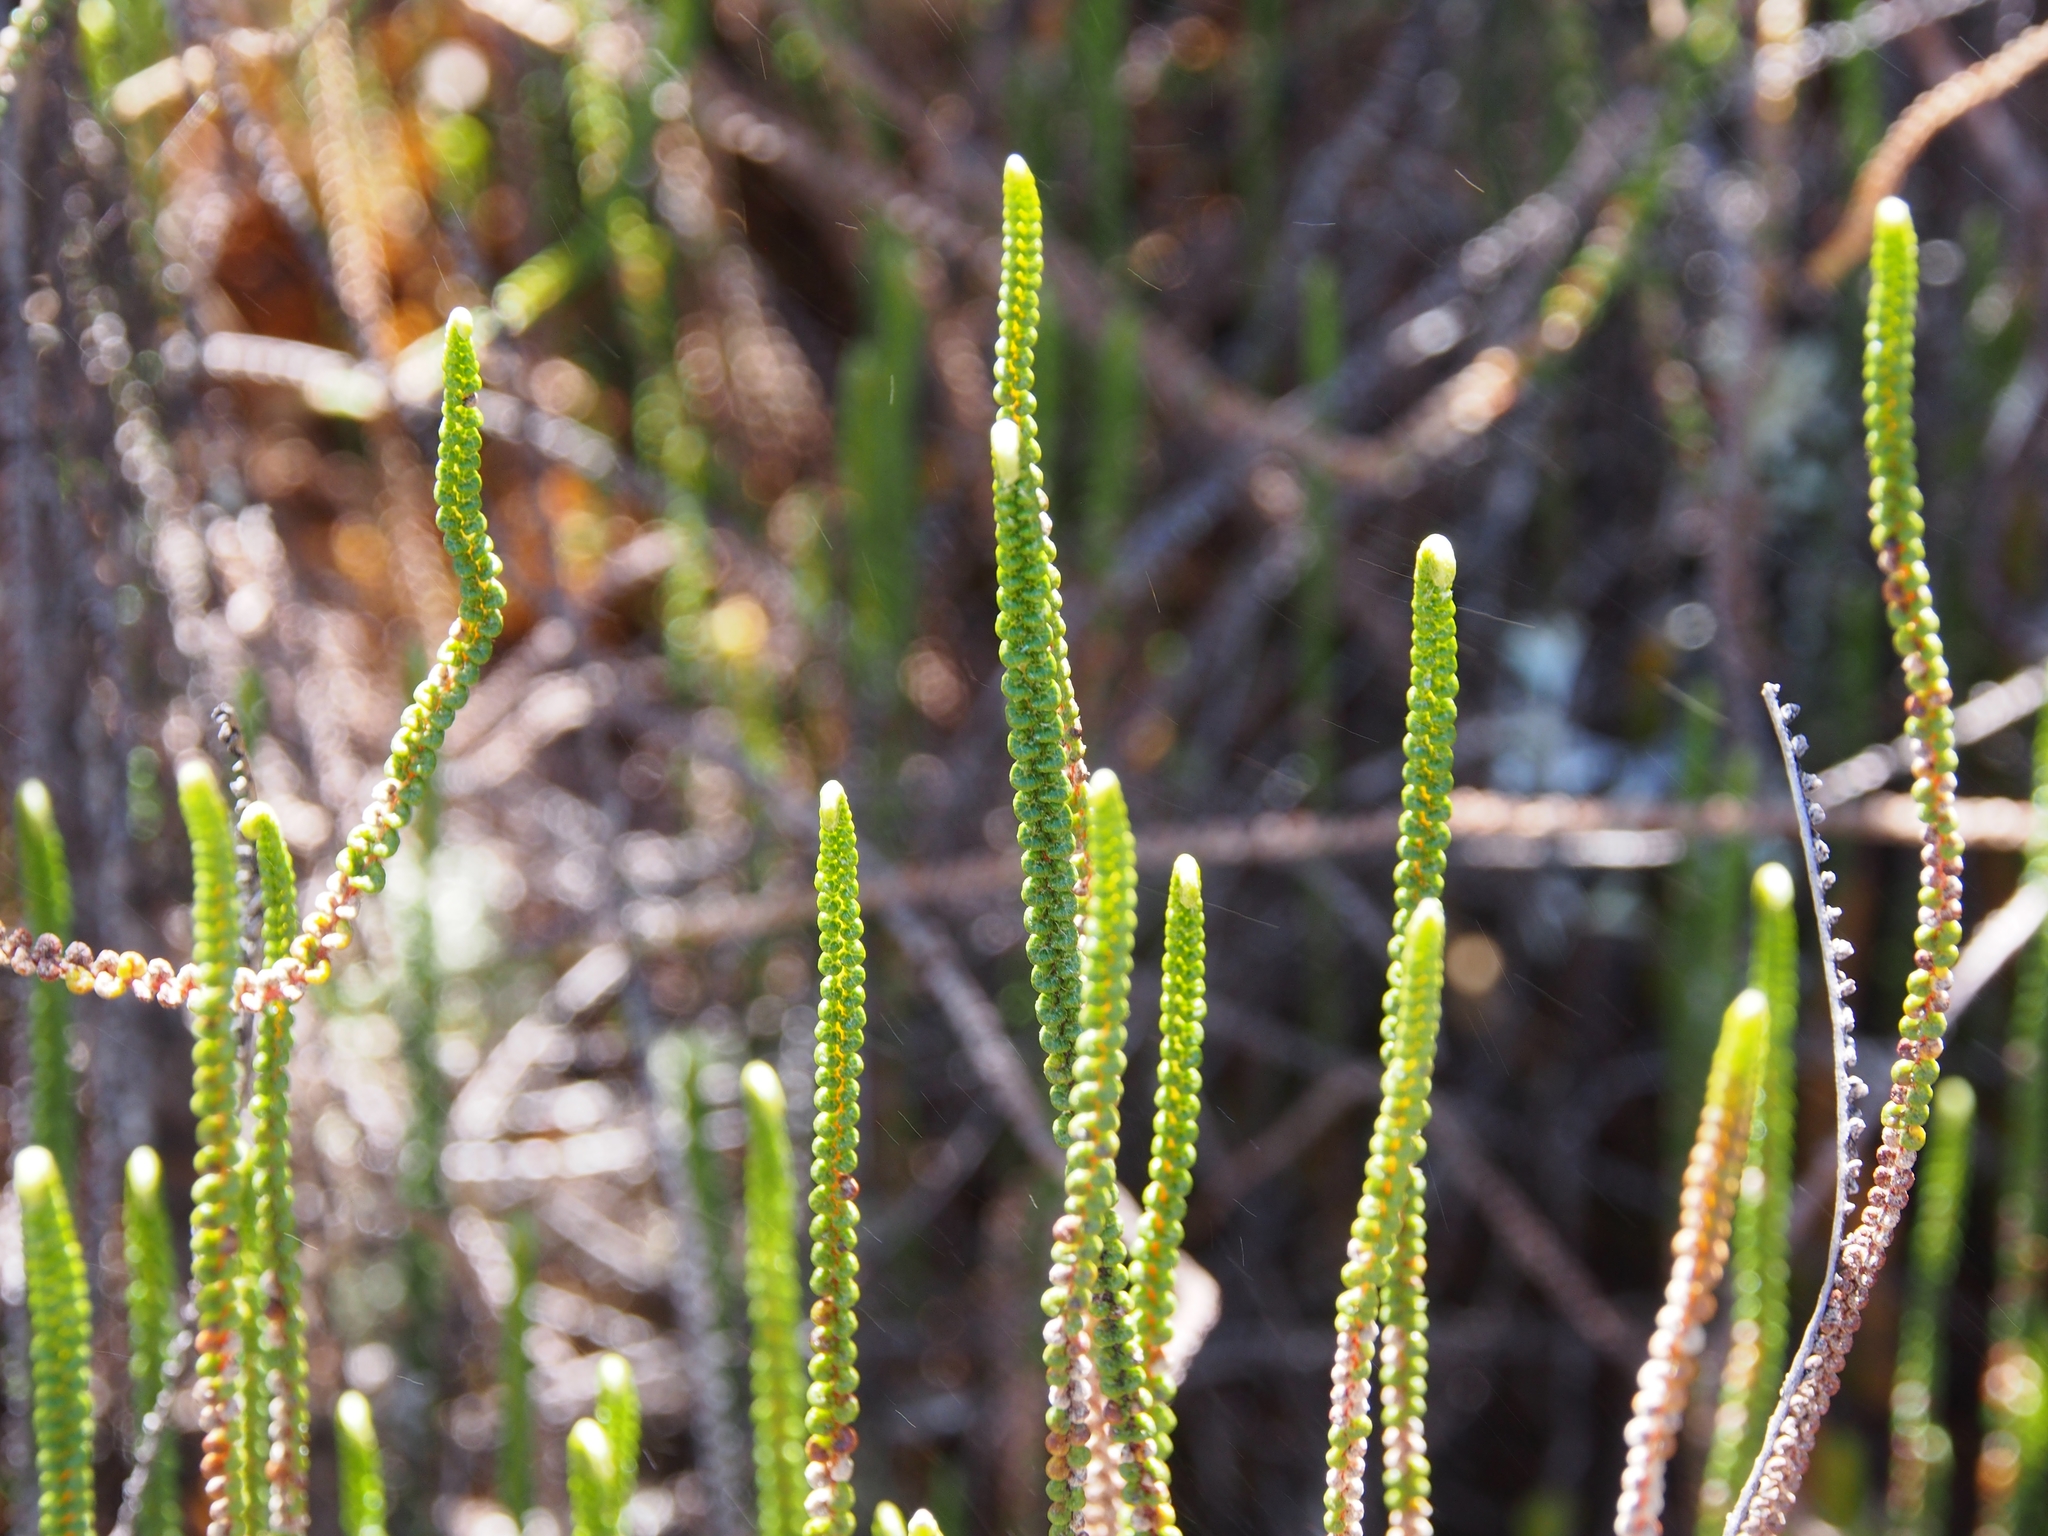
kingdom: Plantae
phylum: Tracheophyta
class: Polypodiopsida
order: Polypodiales
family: Pteridaceae
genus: Jamesonia
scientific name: Jamesonia scammaniae
